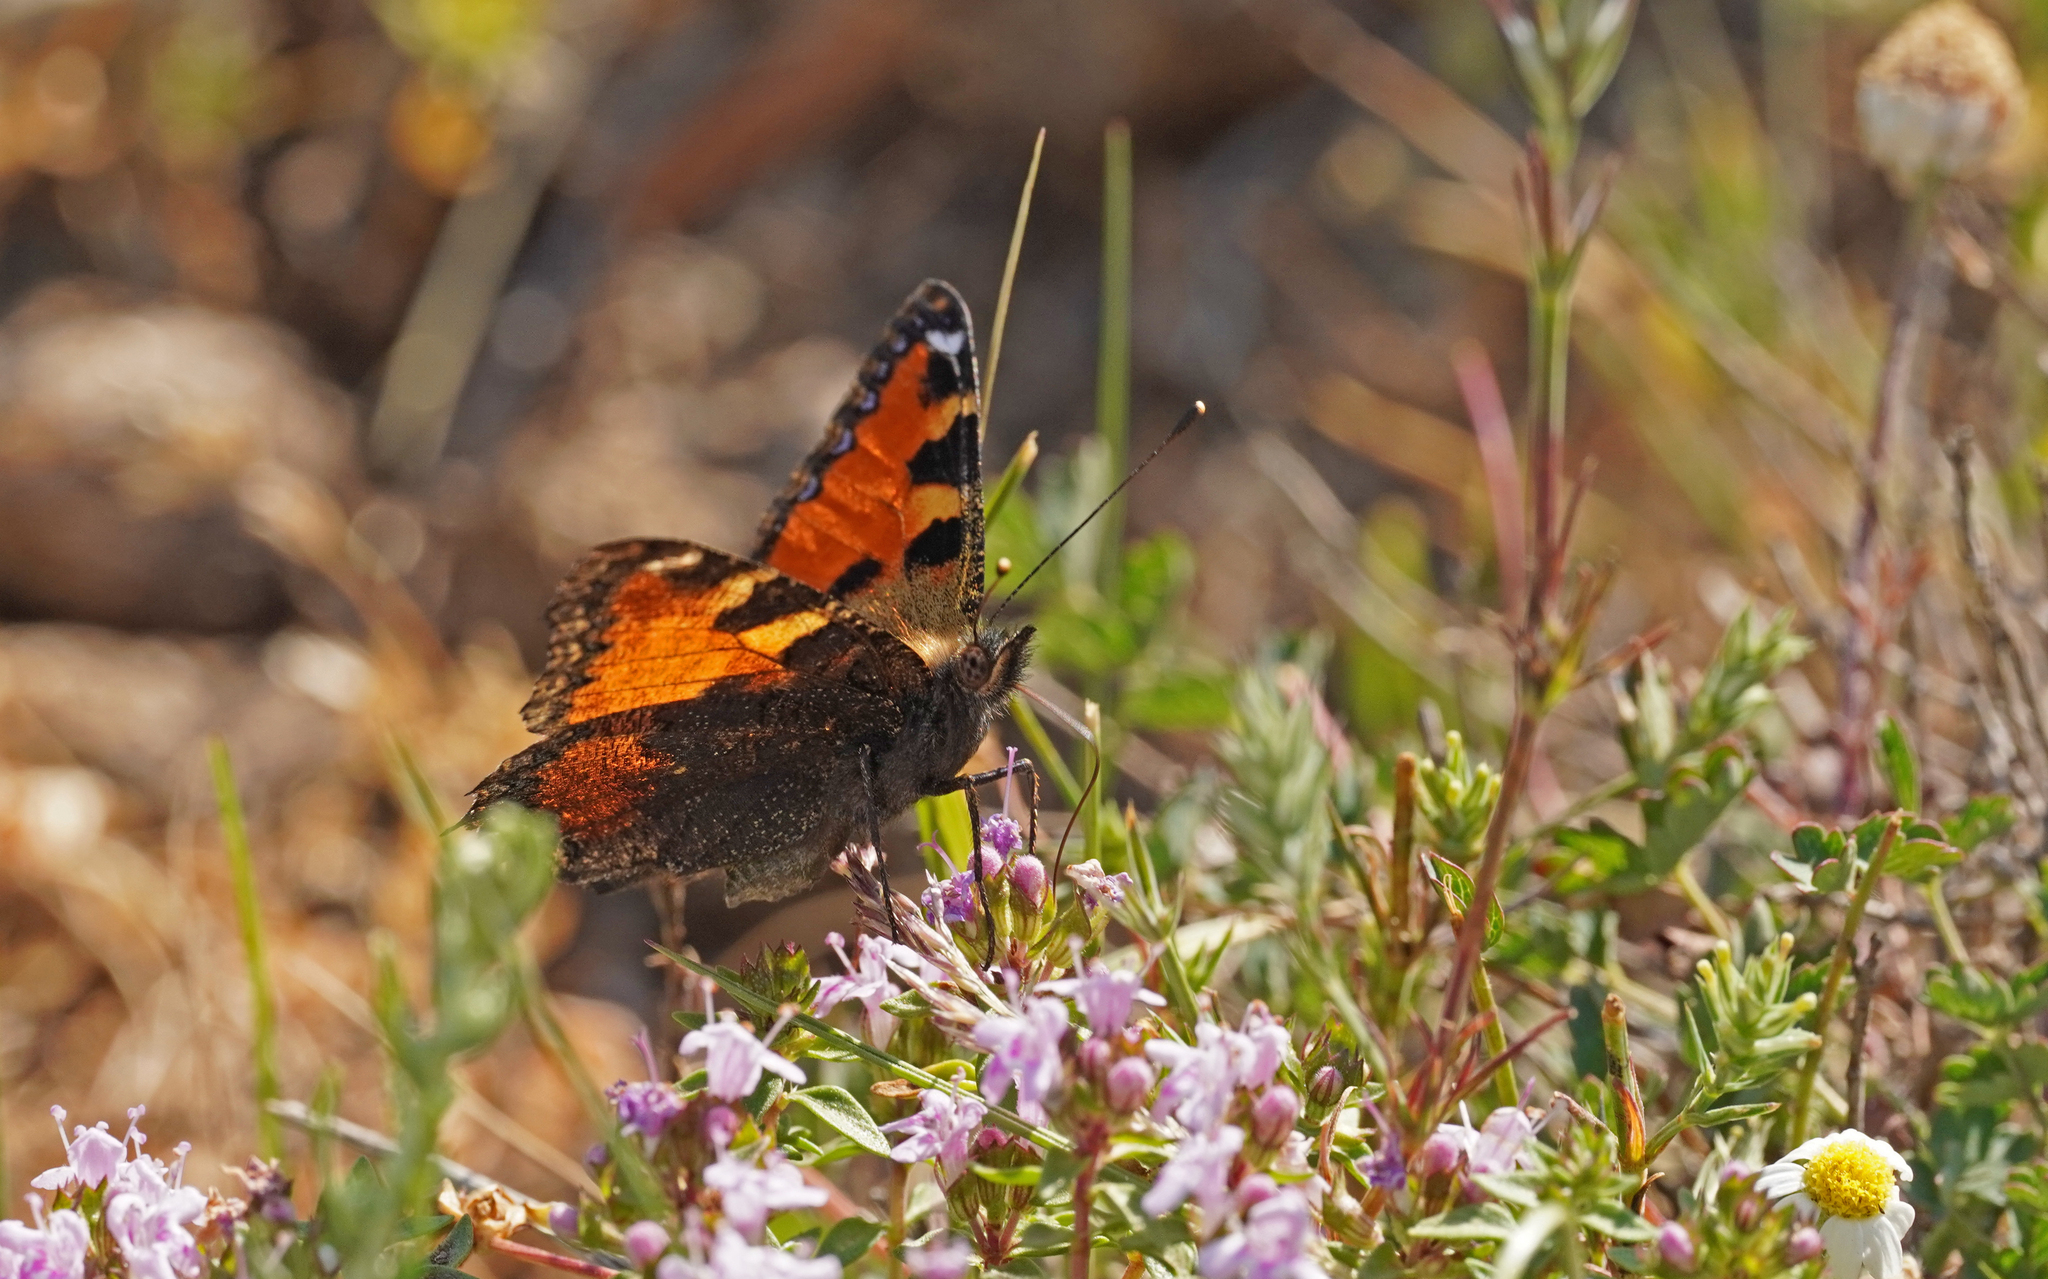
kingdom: Animalia
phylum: Arthropoda
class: Insecta
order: Lepidoptera
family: Nymphalidae
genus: Aglais
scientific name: Aglais ichnusa
